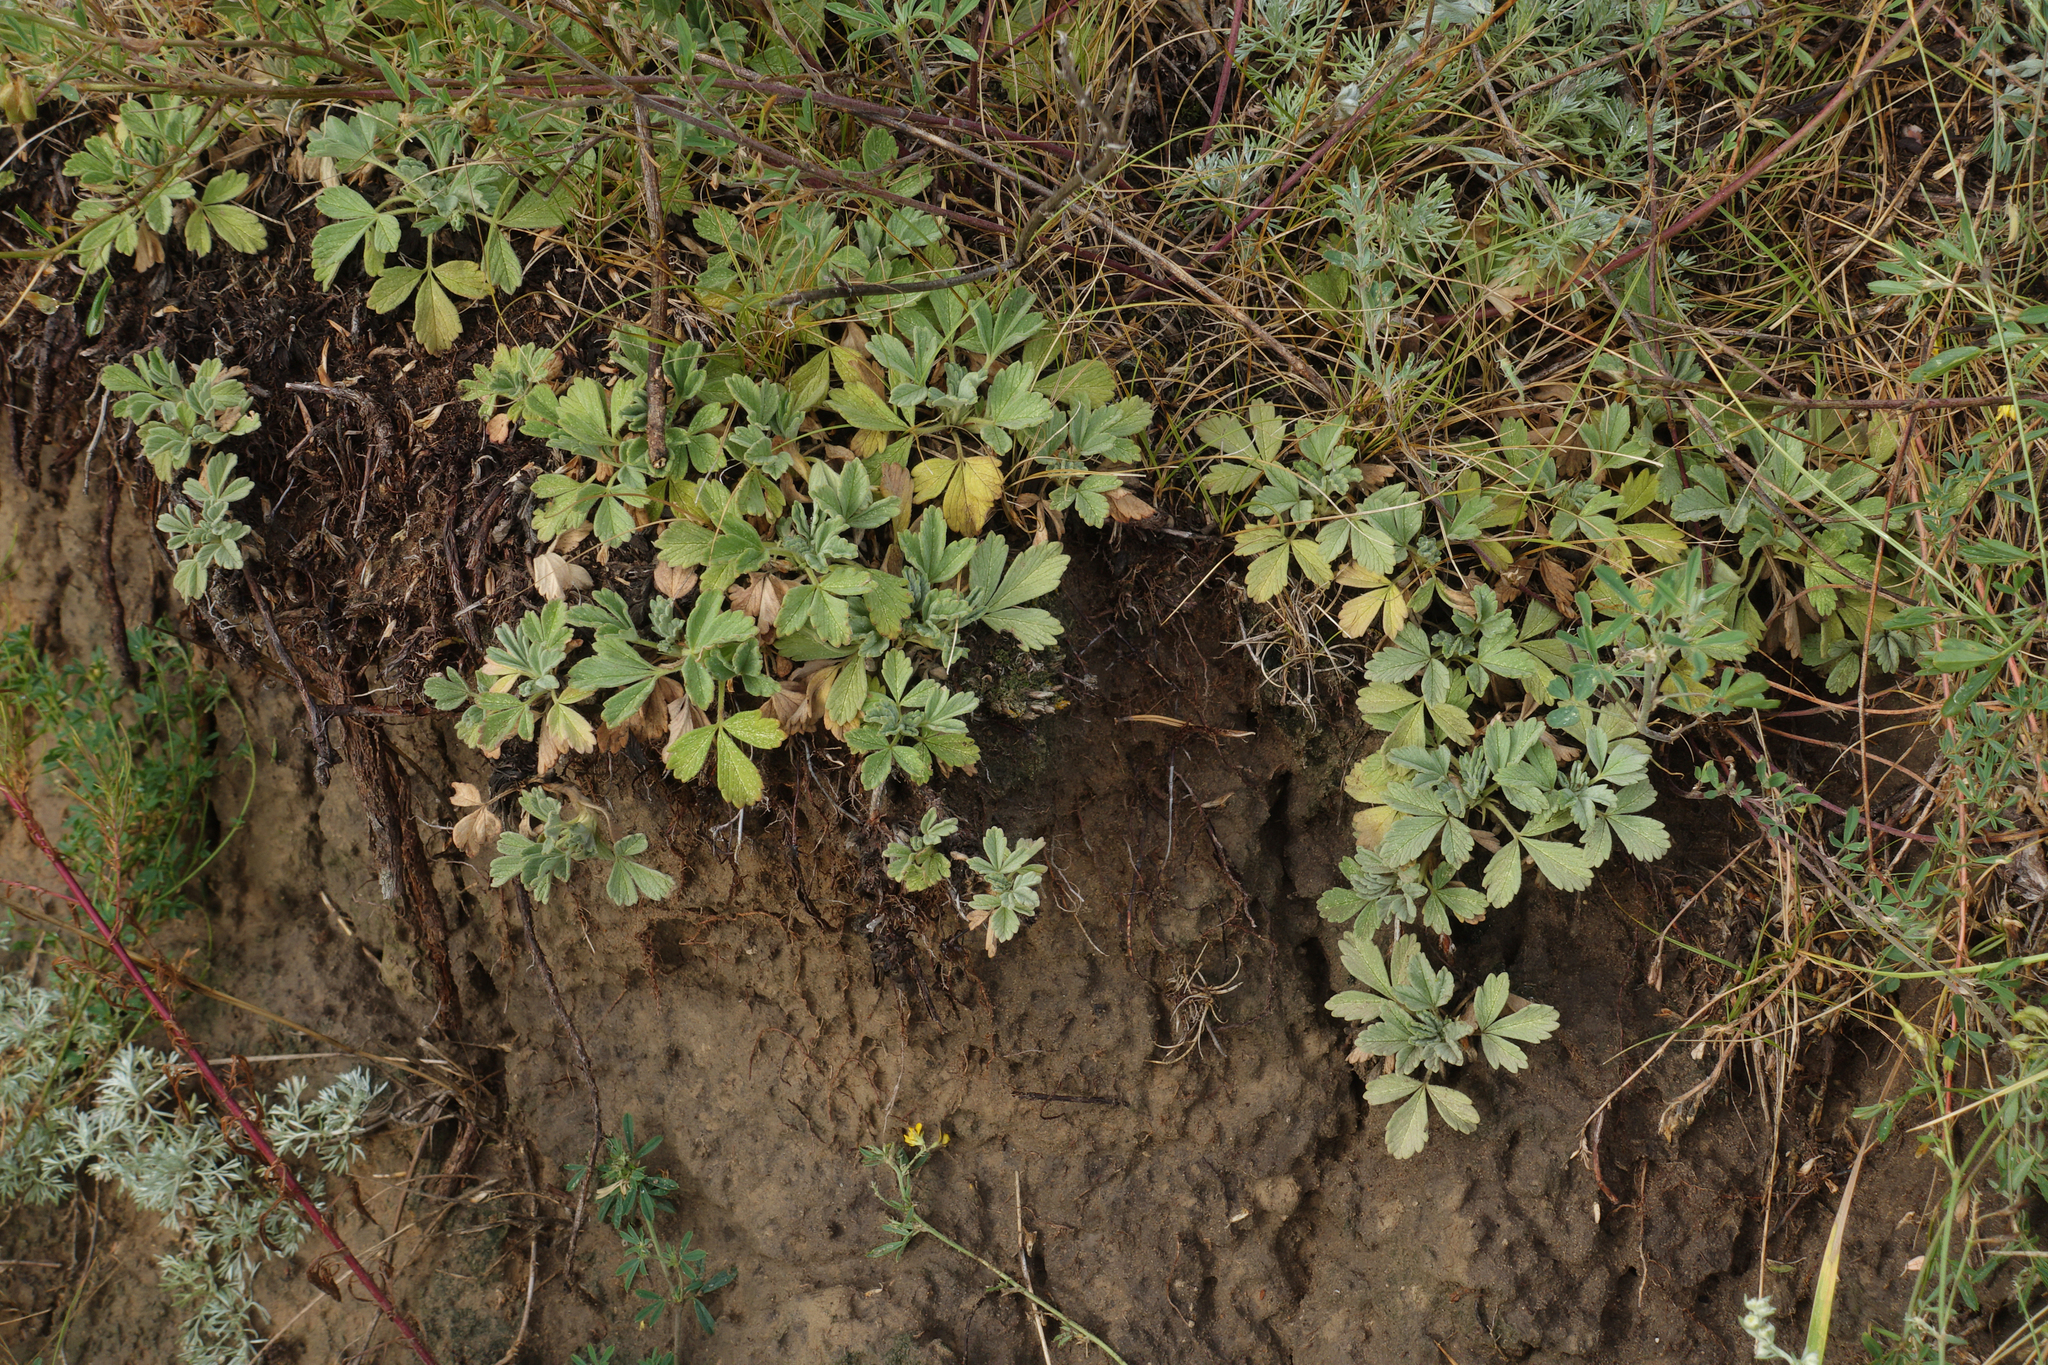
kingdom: Plantae
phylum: Tracheophyta
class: Magnoliopsida
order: Rosales
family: Rosaceae
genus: Potentilla
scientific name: Potentilla acaulis
